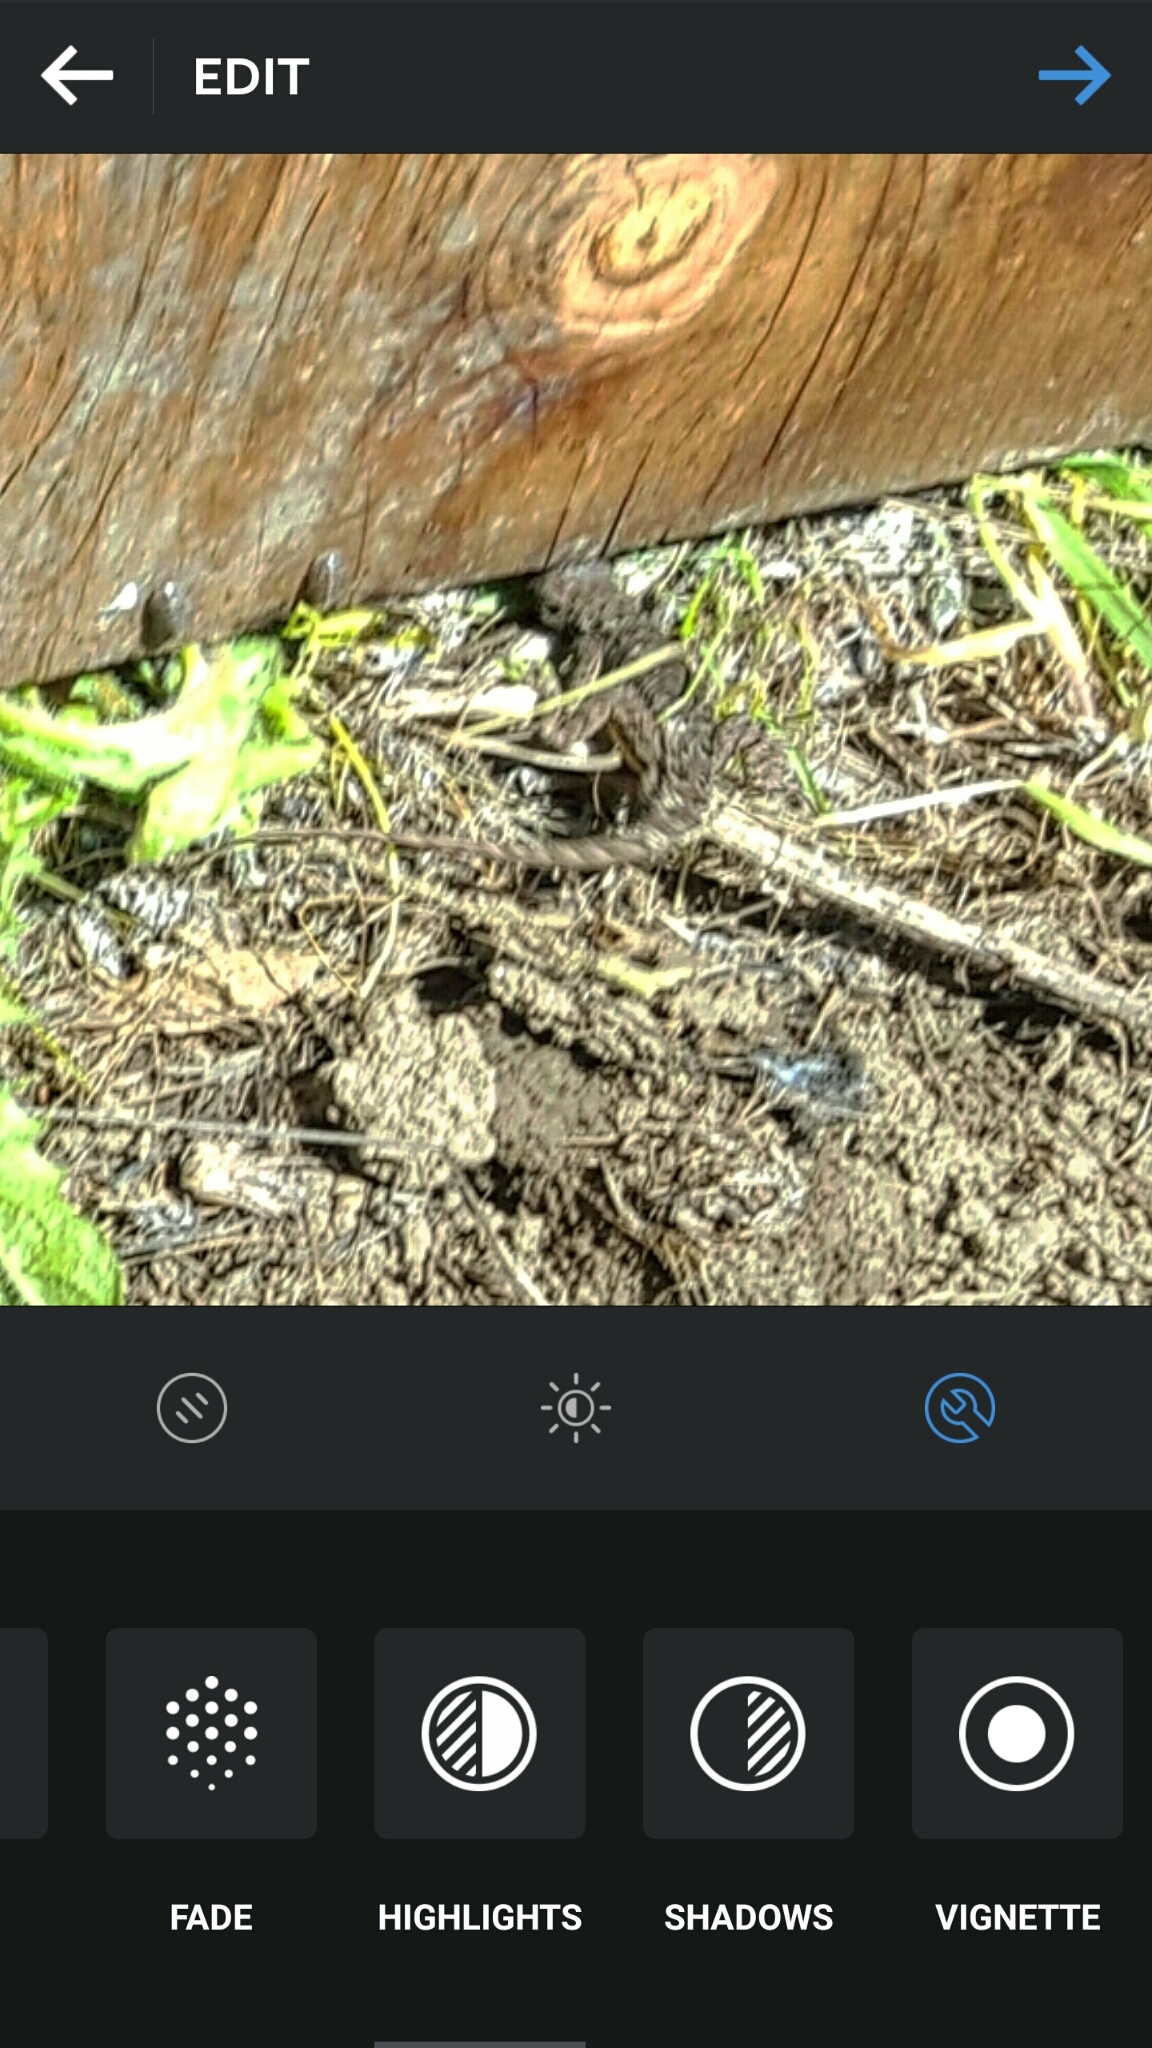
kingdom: Animalia
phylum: Chordata
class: Squamata
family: Phrynosomatidae
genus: Sceloporus
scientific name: Sceloporus occidentalis
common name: Western fence lizard
